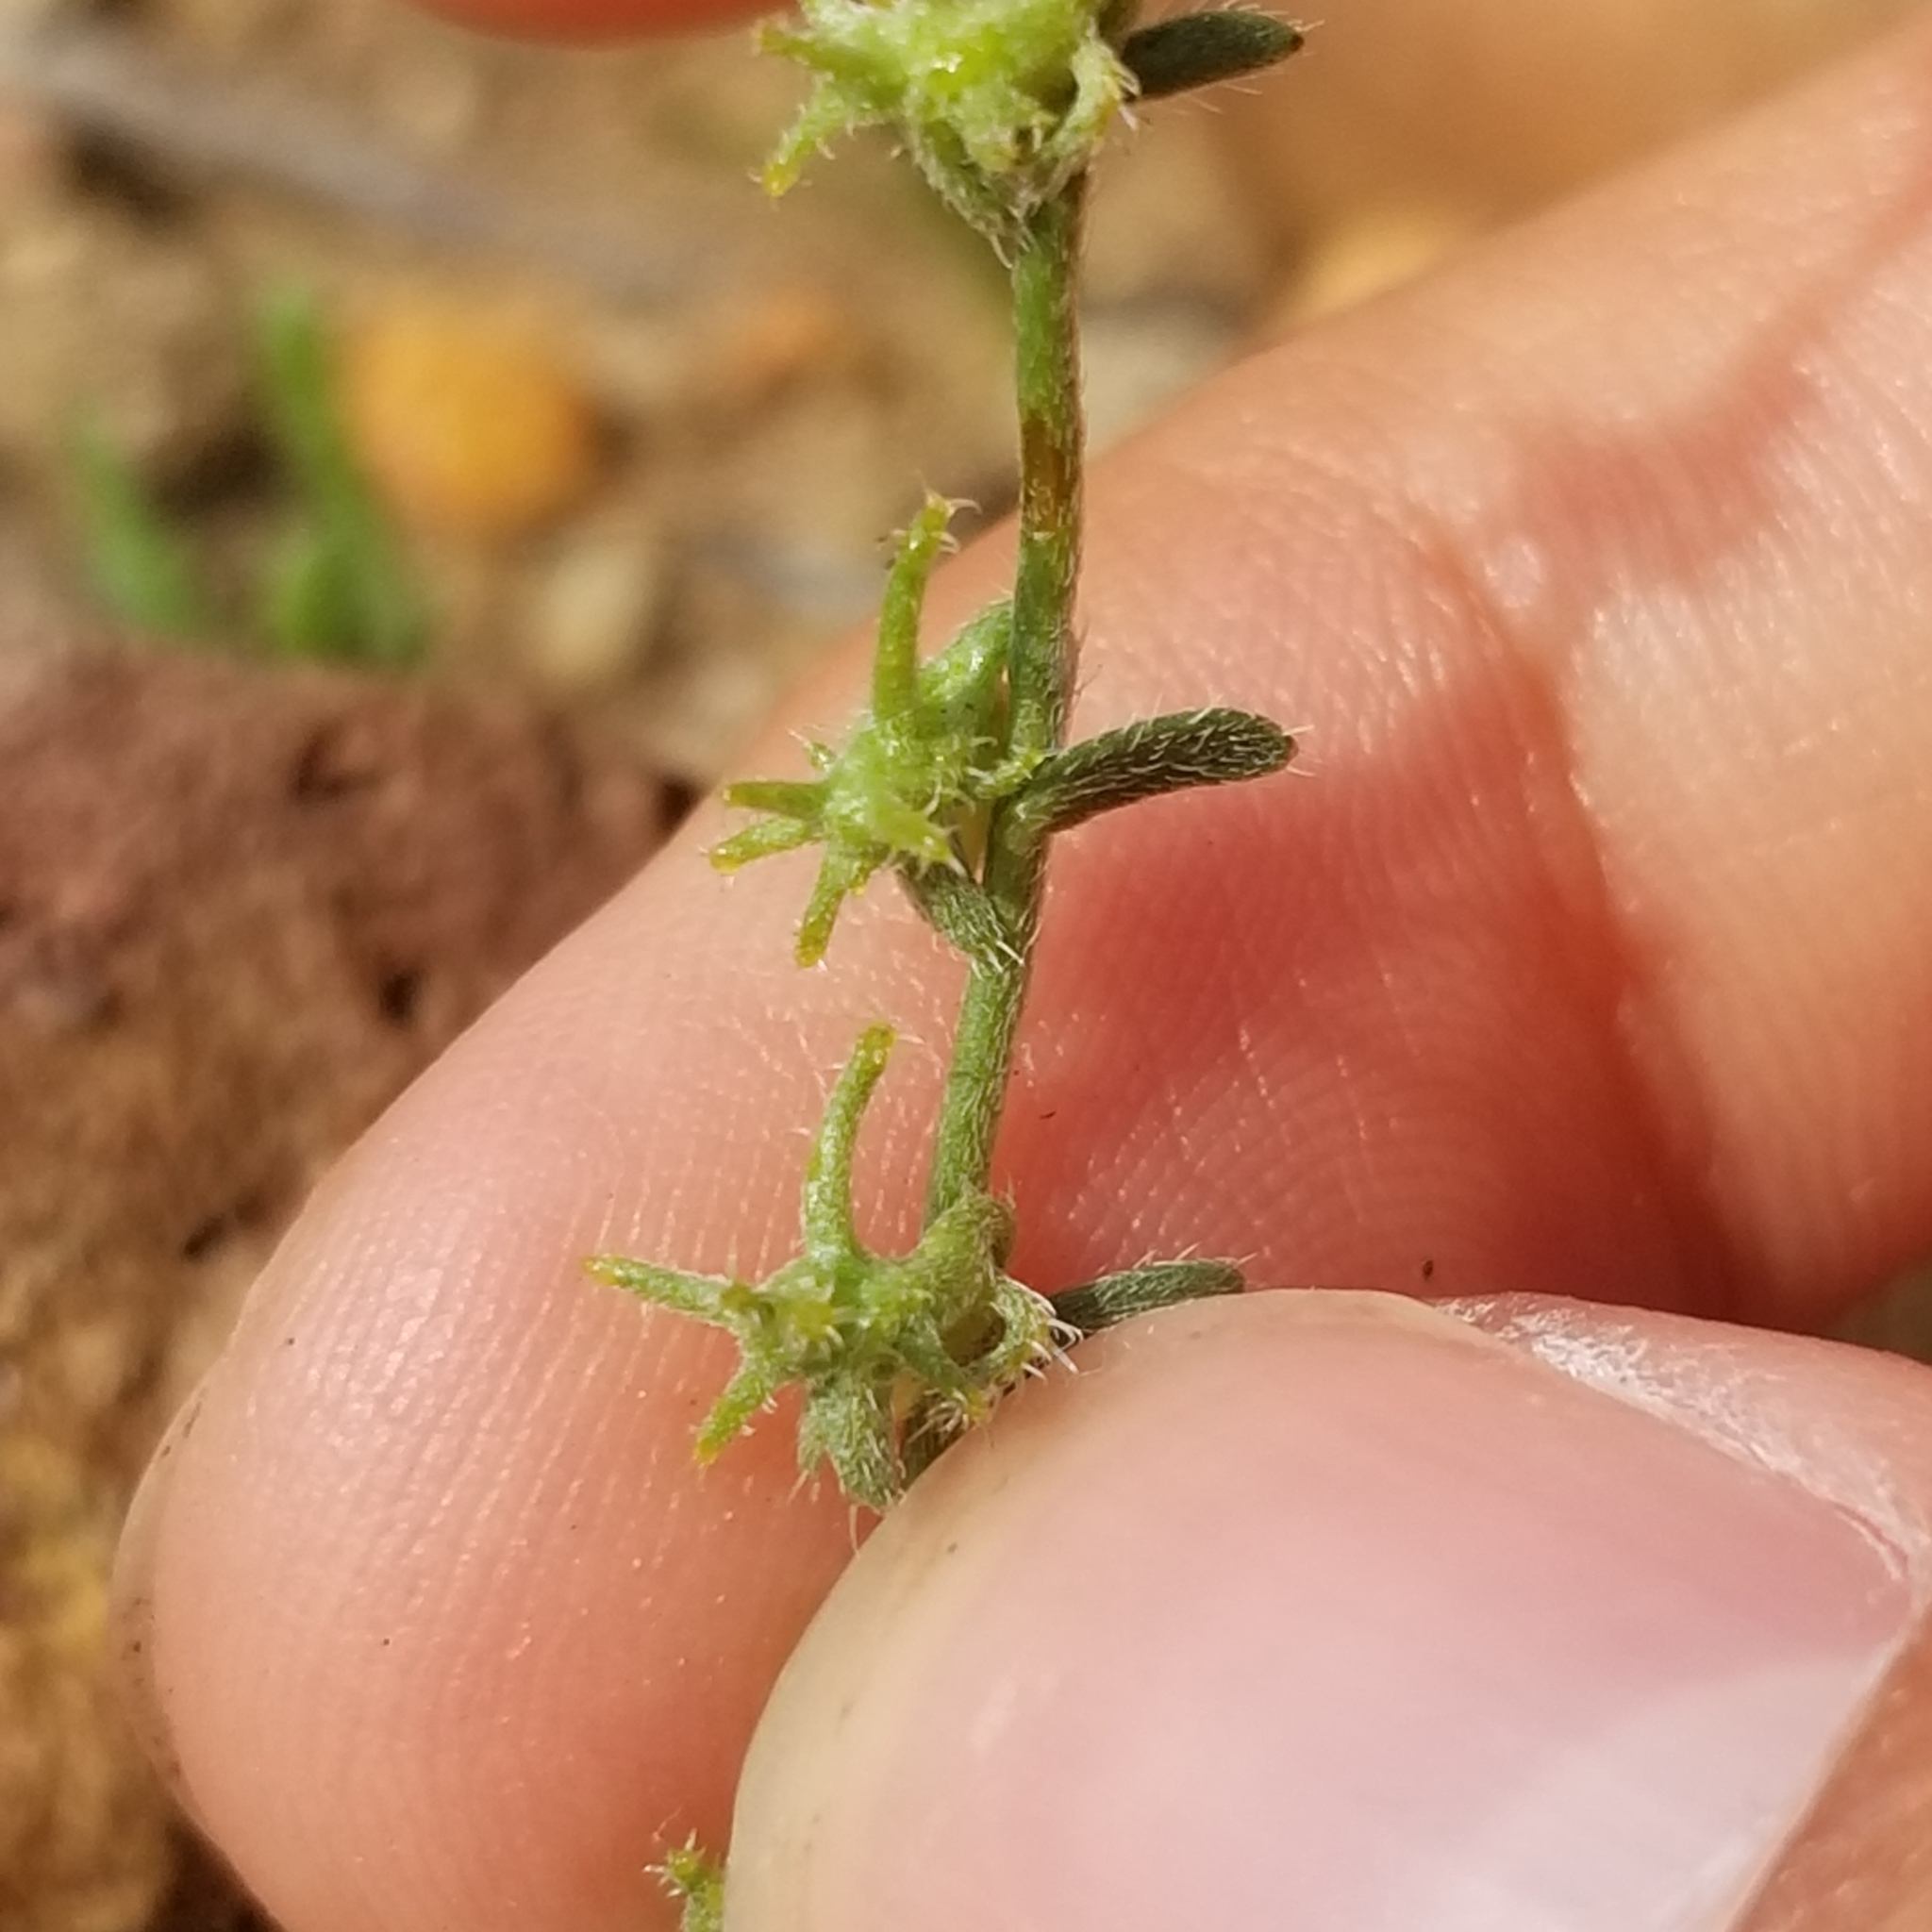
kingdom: Plantae
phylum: Tracheophyta
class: Magnoliopsida
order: Boraginales
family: Boraginaceae
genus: Harpagonella
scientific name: Harpagonella palmeri
